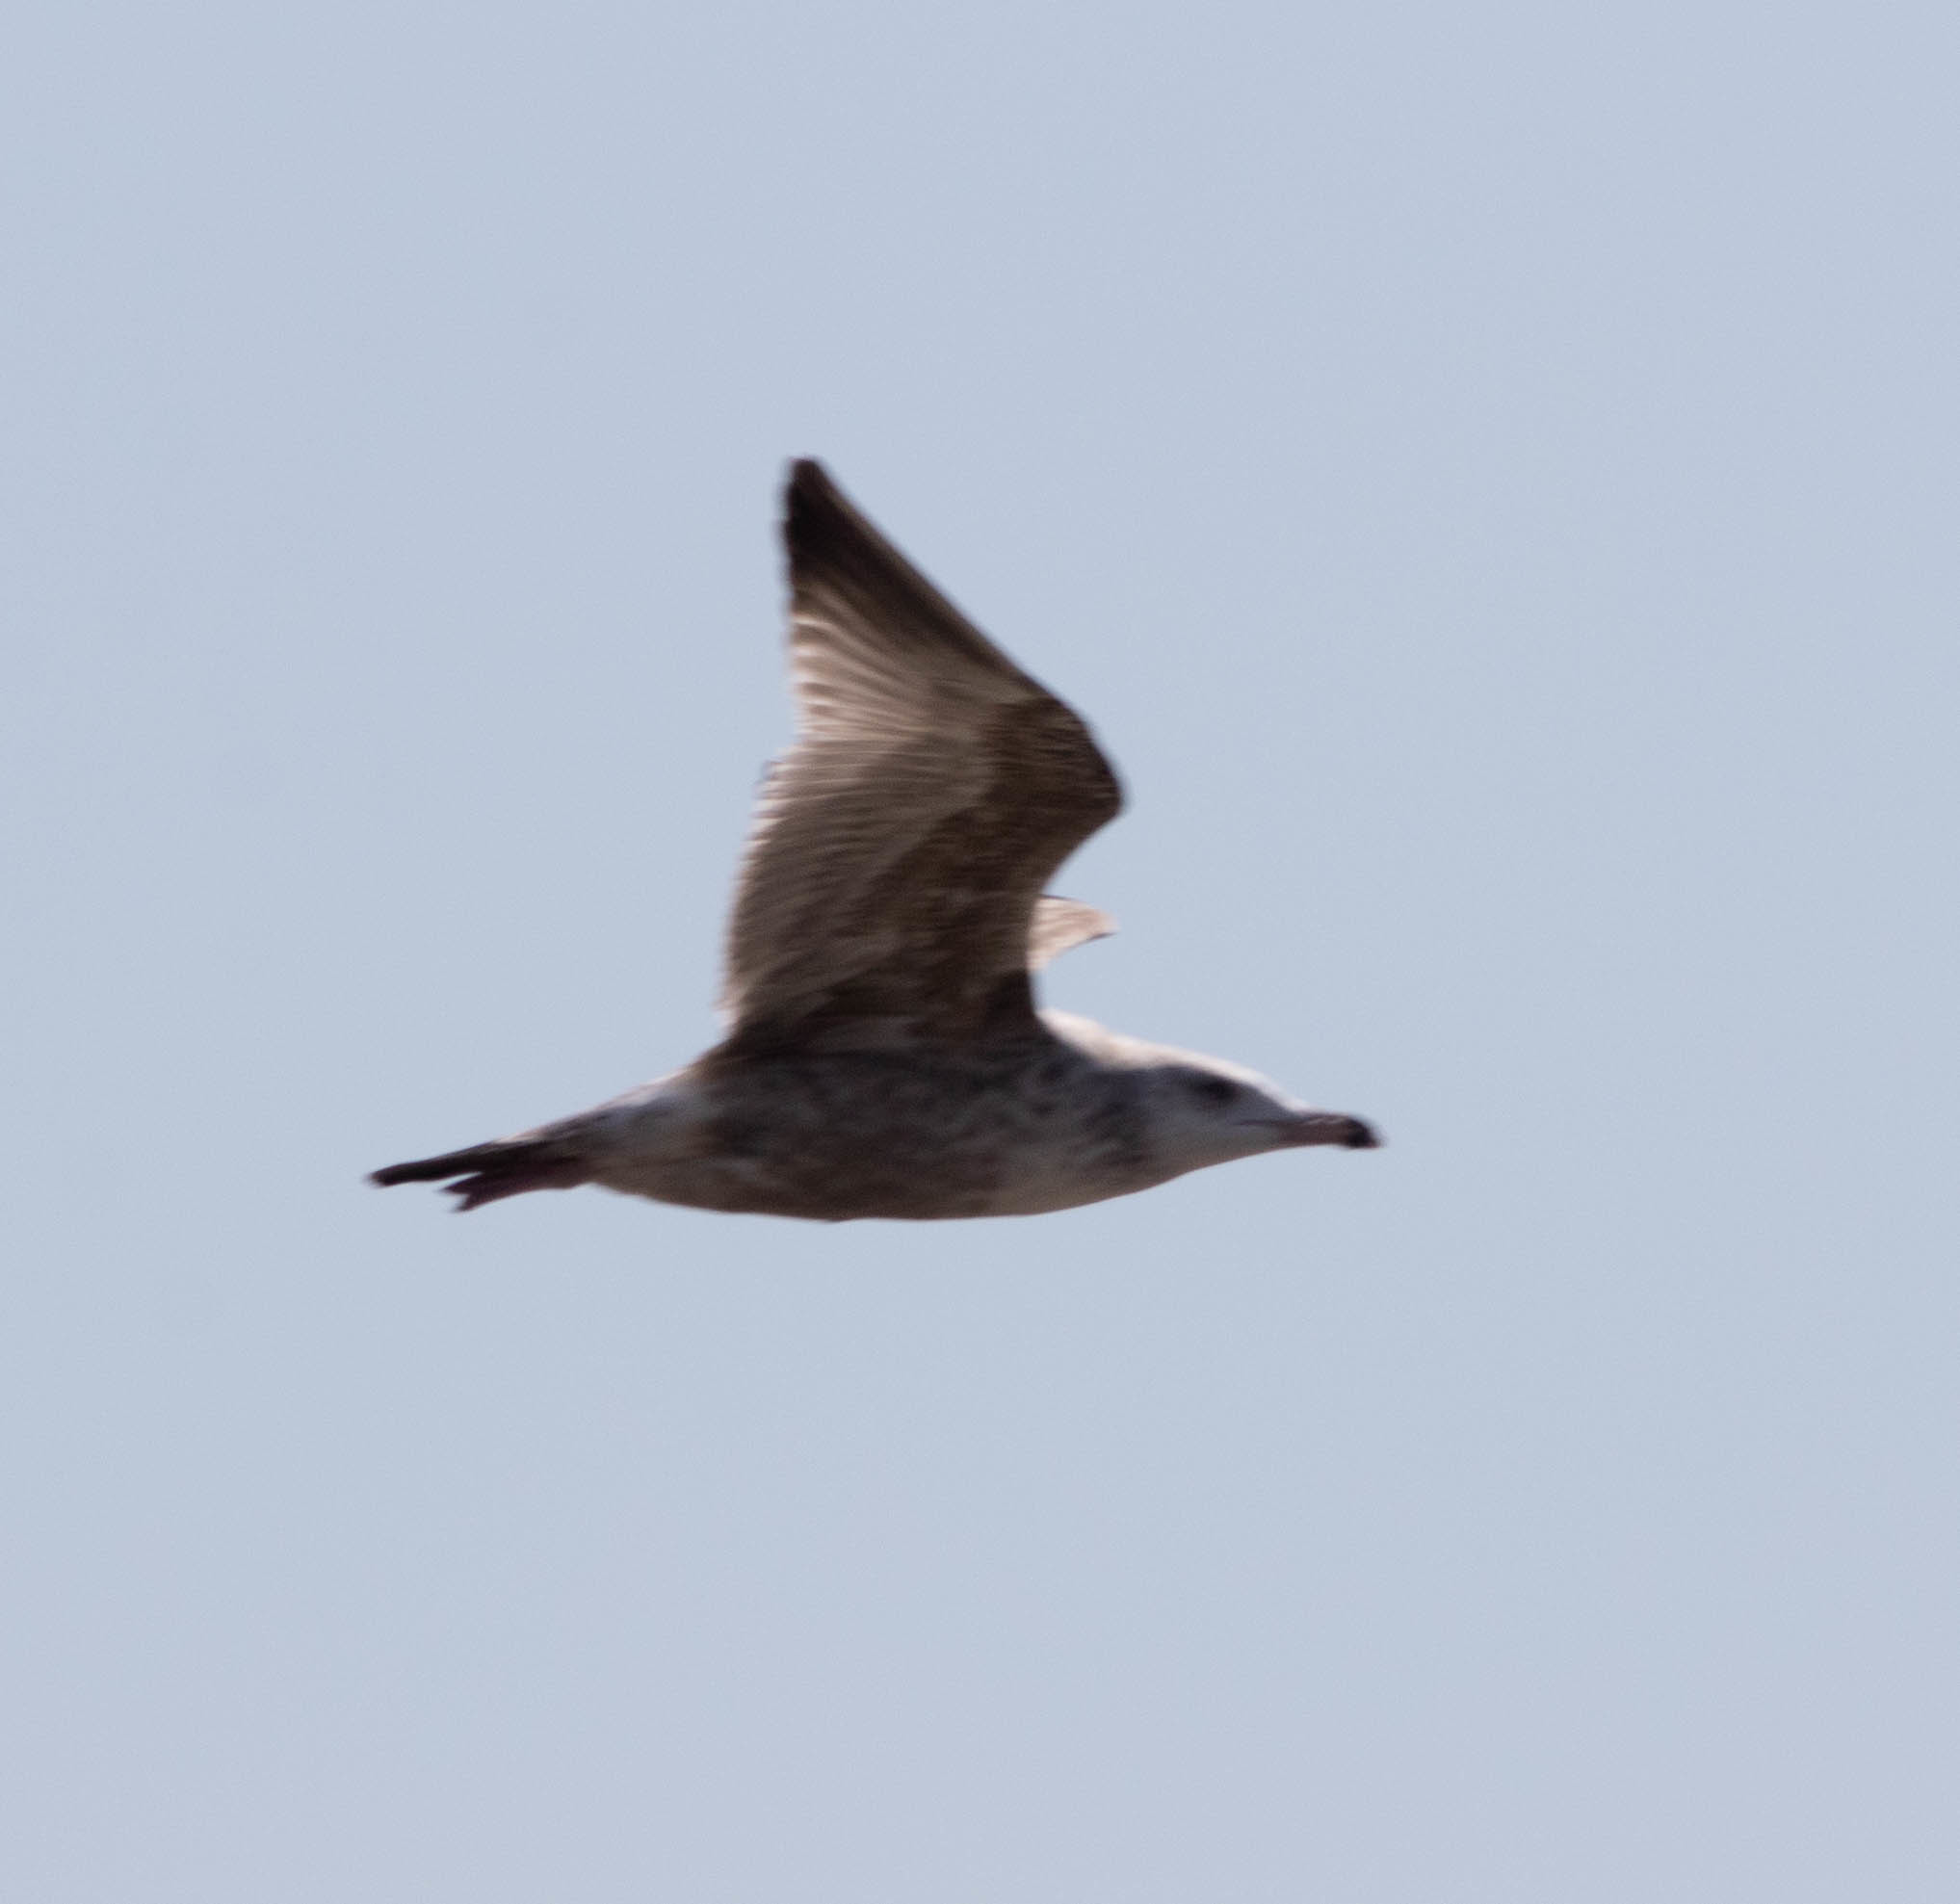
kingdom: Animalia
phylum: Chordata
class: Aves
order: Charadriiformes
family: Laridae
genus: Larus
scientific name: Larus argentatus
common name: Herring gull
